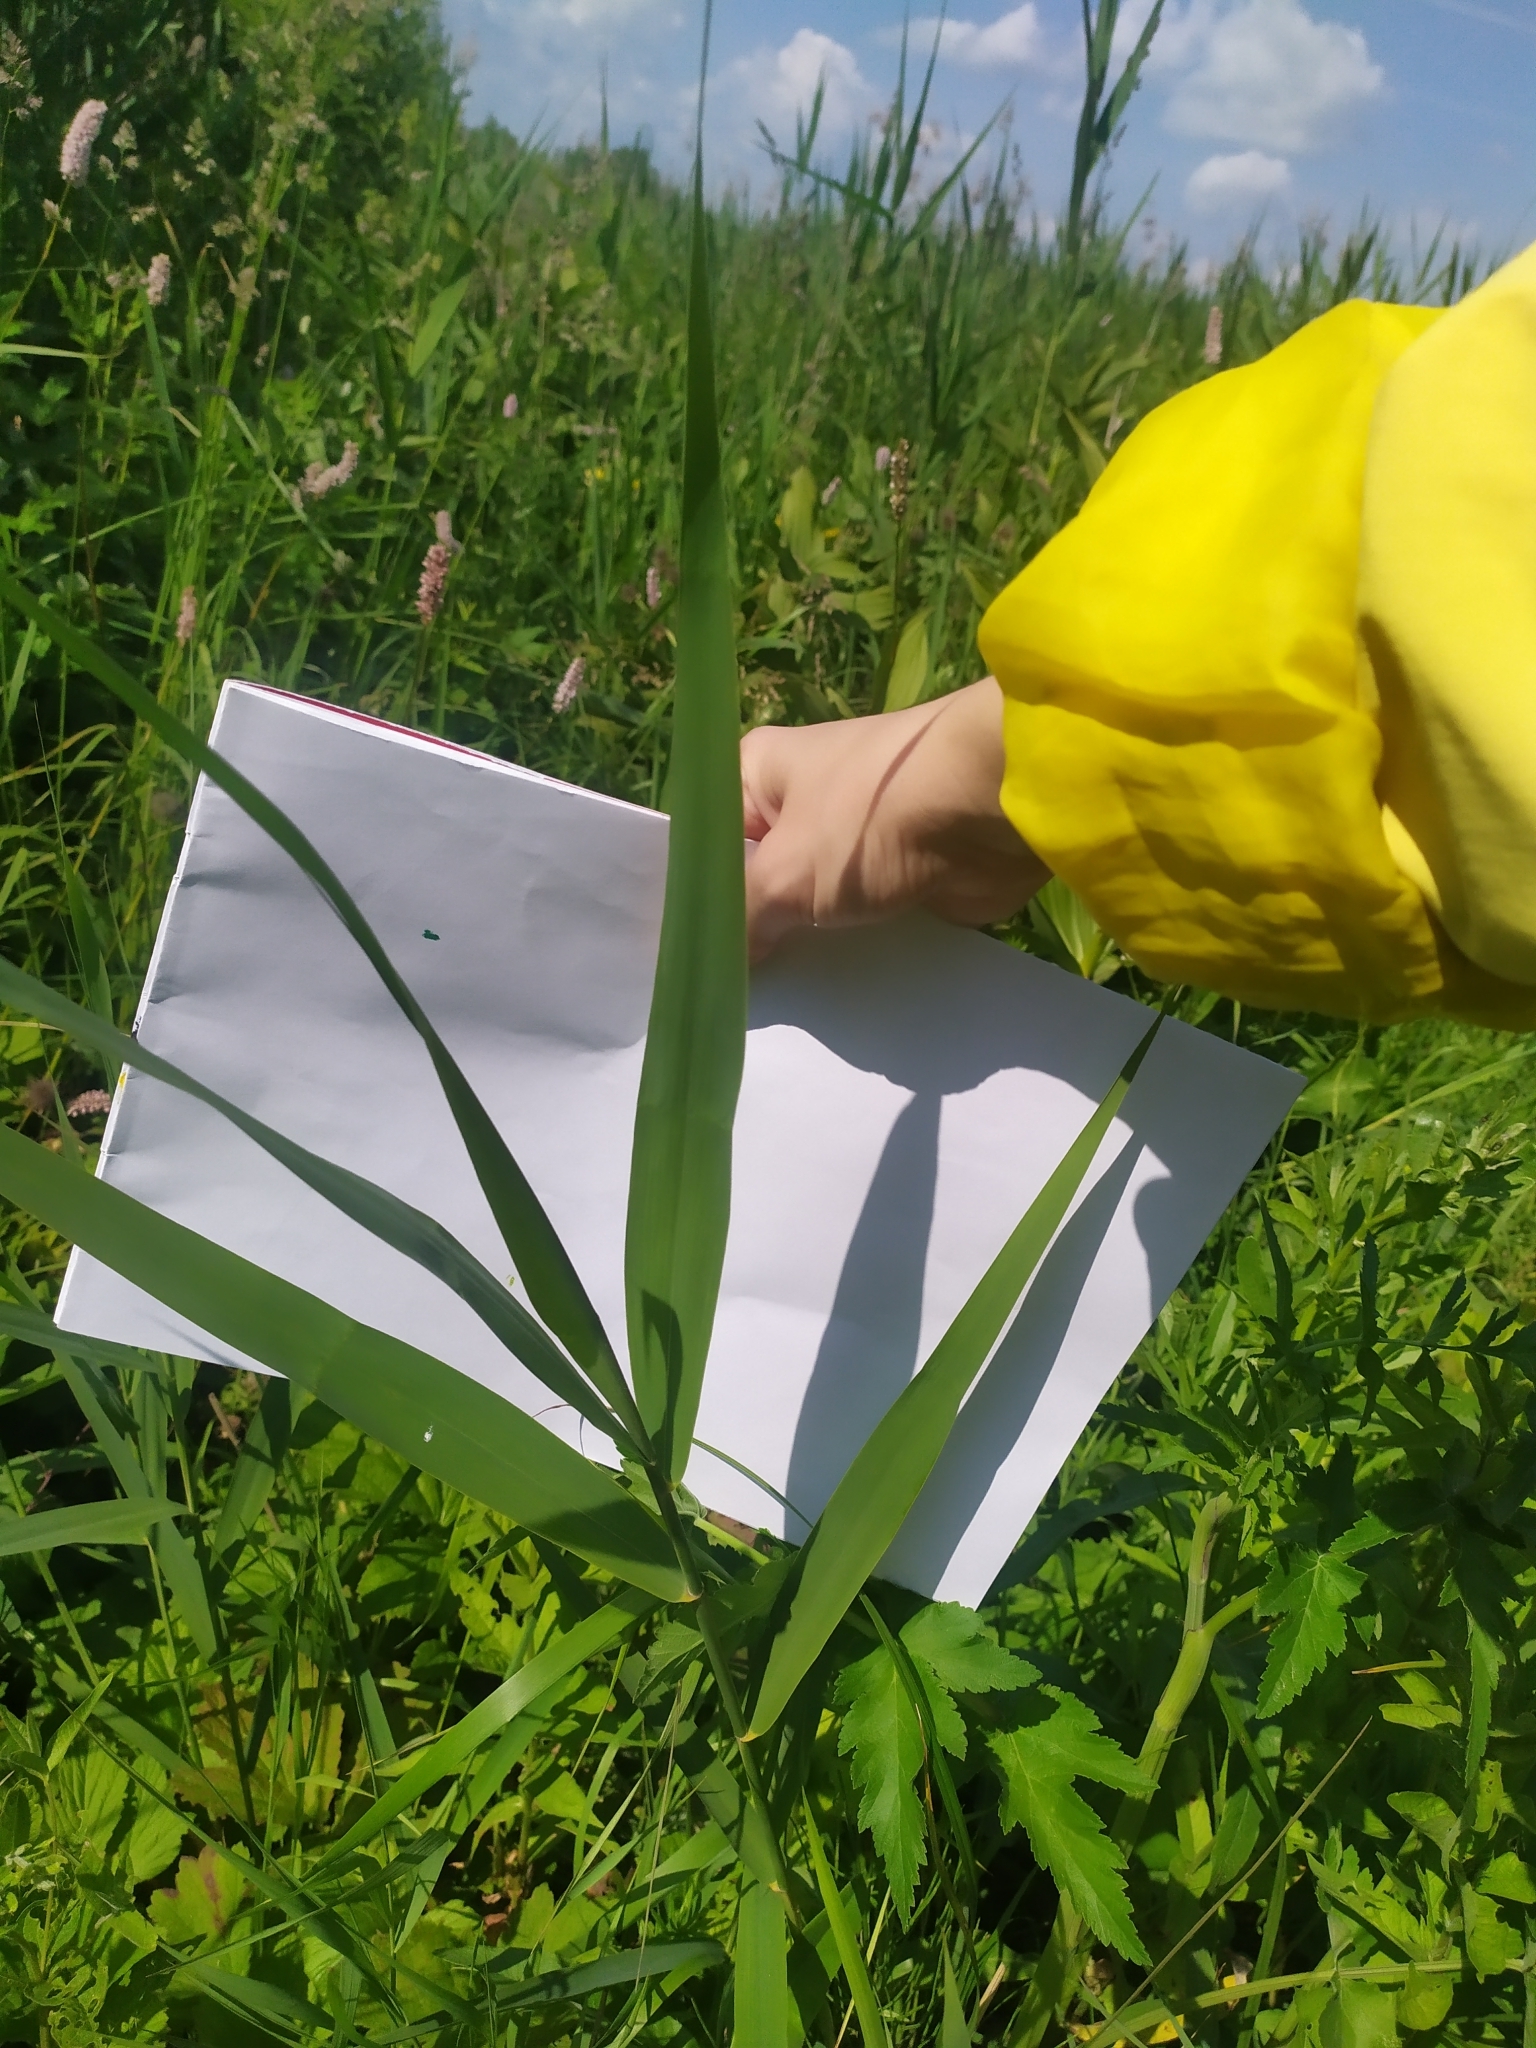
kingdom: Plantae
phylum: Tracheophyta
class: Liliopsida
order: Poales
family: Poaceae
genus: Phragmites
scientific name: Phragmites australis
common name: Common reed
